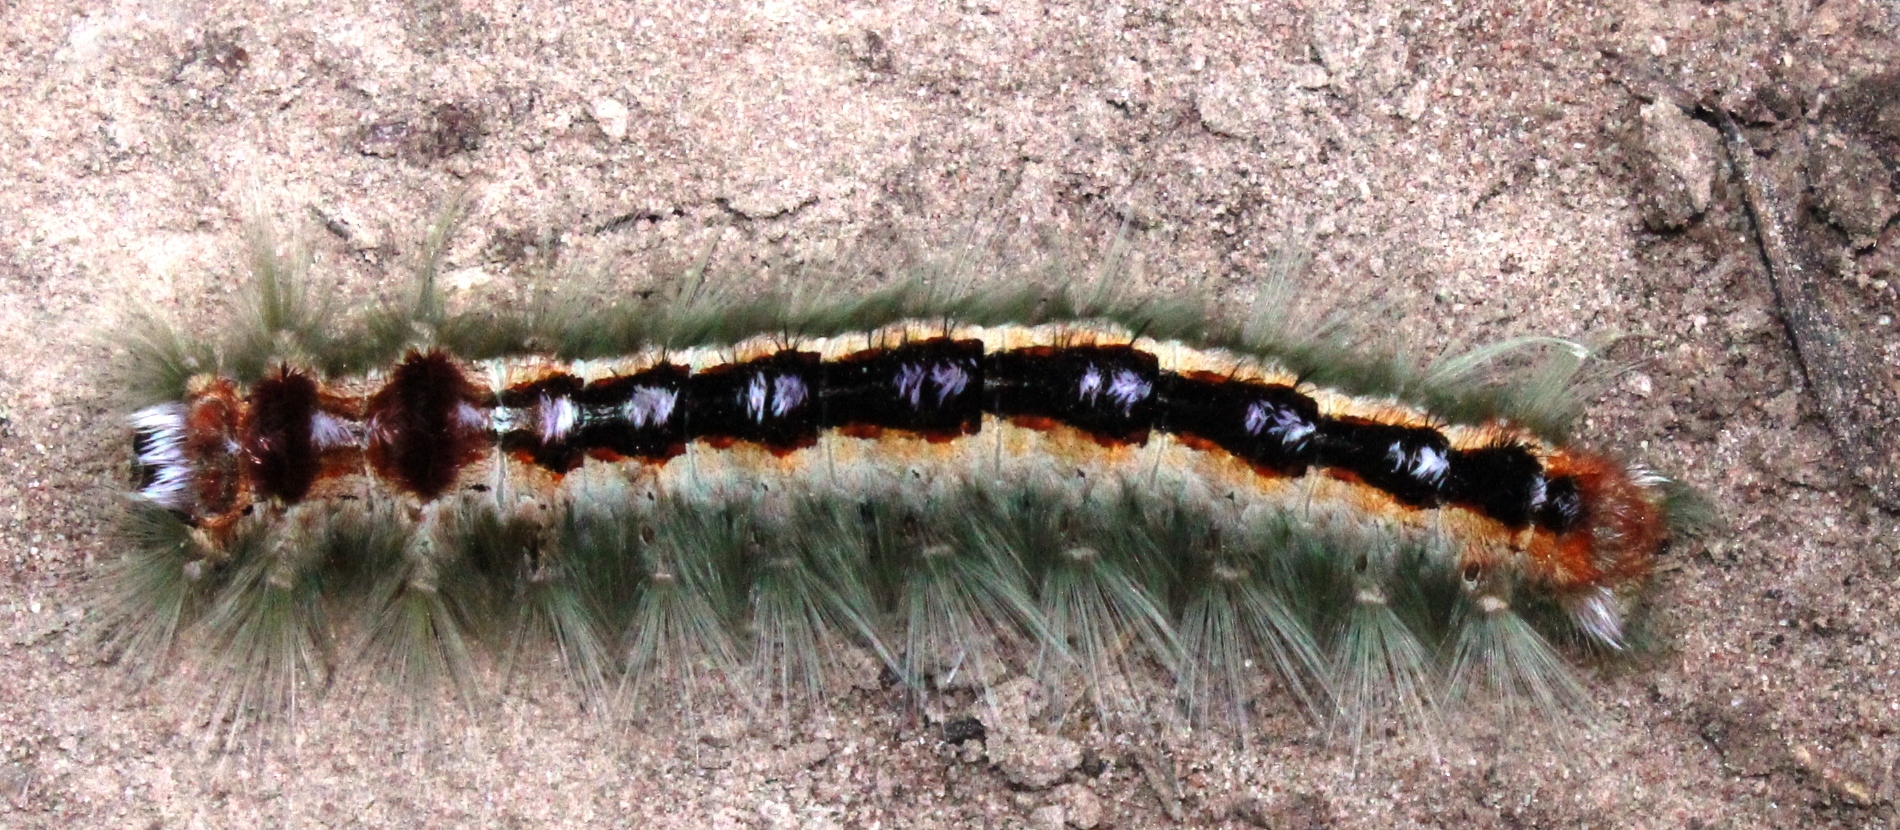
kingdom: Animalia
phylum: Arthropoda
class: Insecta
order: Lepidoptera
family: Lasiocampidae
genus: Eutricha
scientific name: Eutricha capensis
